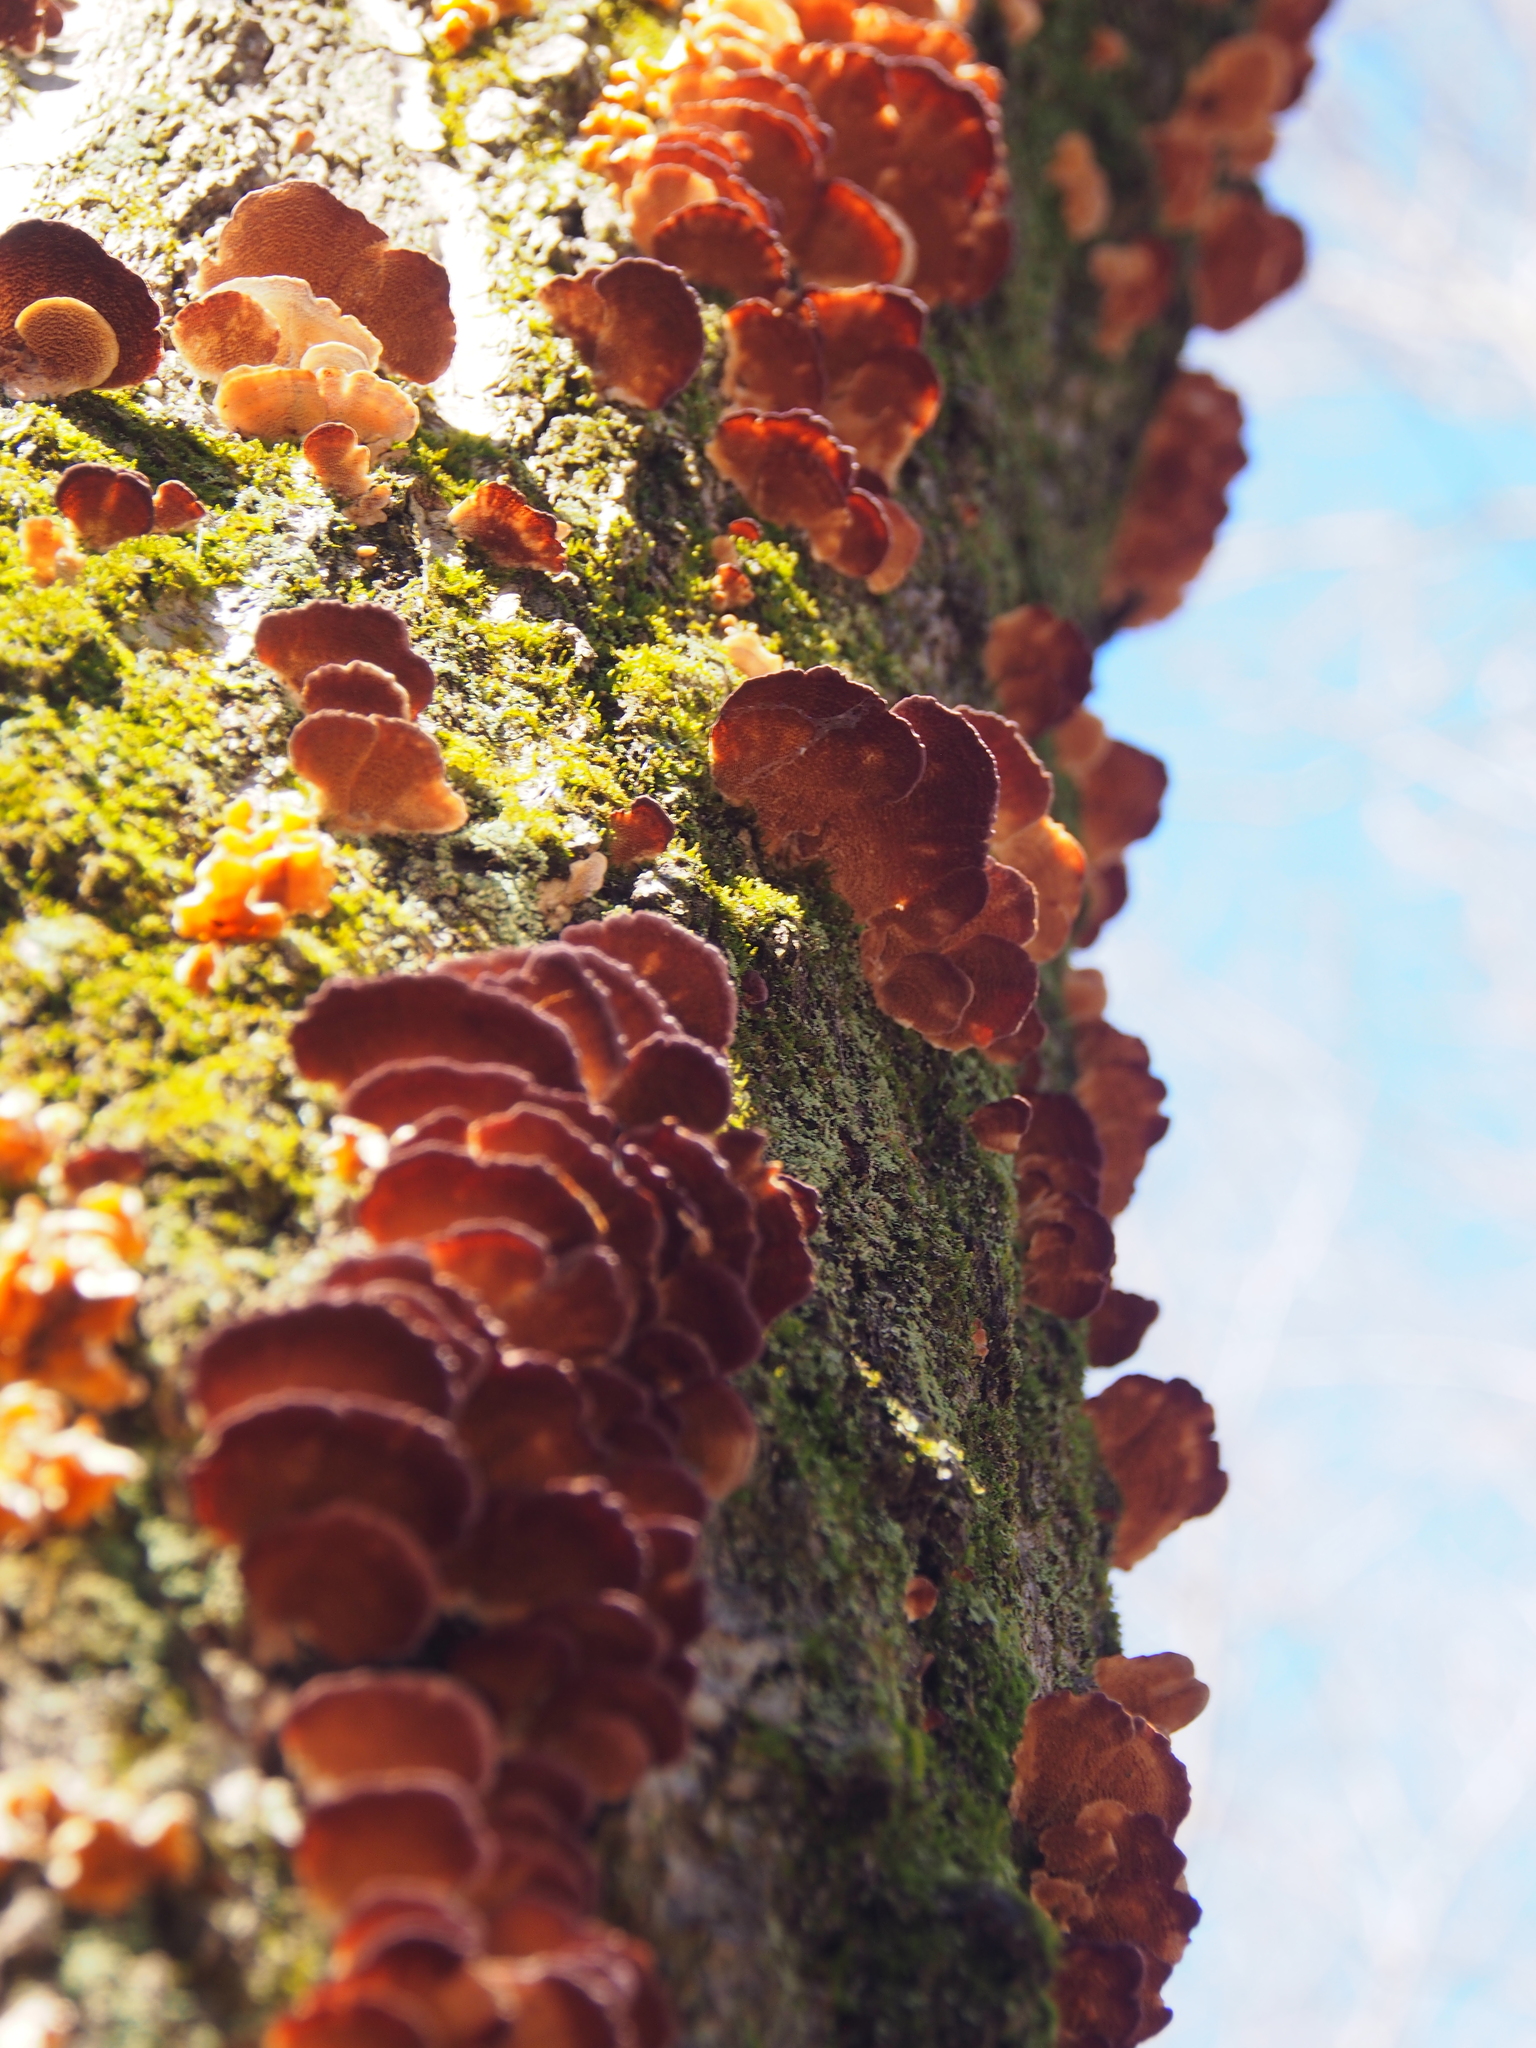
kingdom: Fungi
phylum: Basidiomycota
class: Agaricomycetes
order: Hymenochaetales
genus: Trichaptum
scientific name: Trichaptum biforme
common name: Violet-toothed polypore
